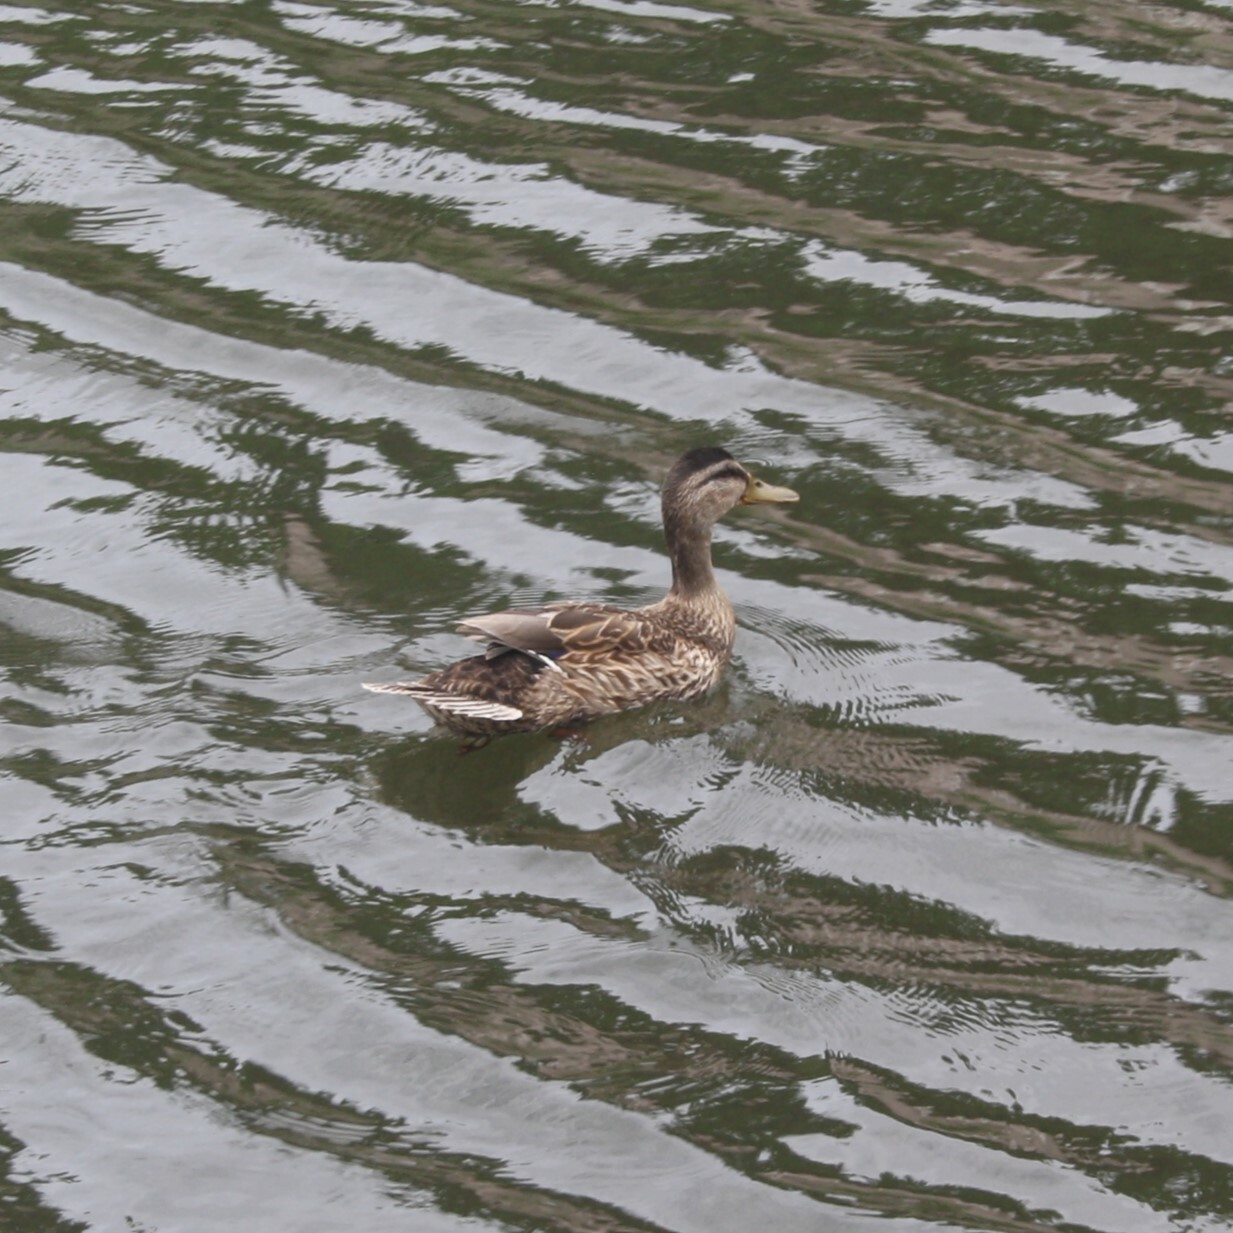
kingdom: Animalia
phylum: Chordata
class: Aves
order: Anseriformes
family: Anatidae
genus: Anas
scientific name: Anas platyrhynchos
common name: Mallard
